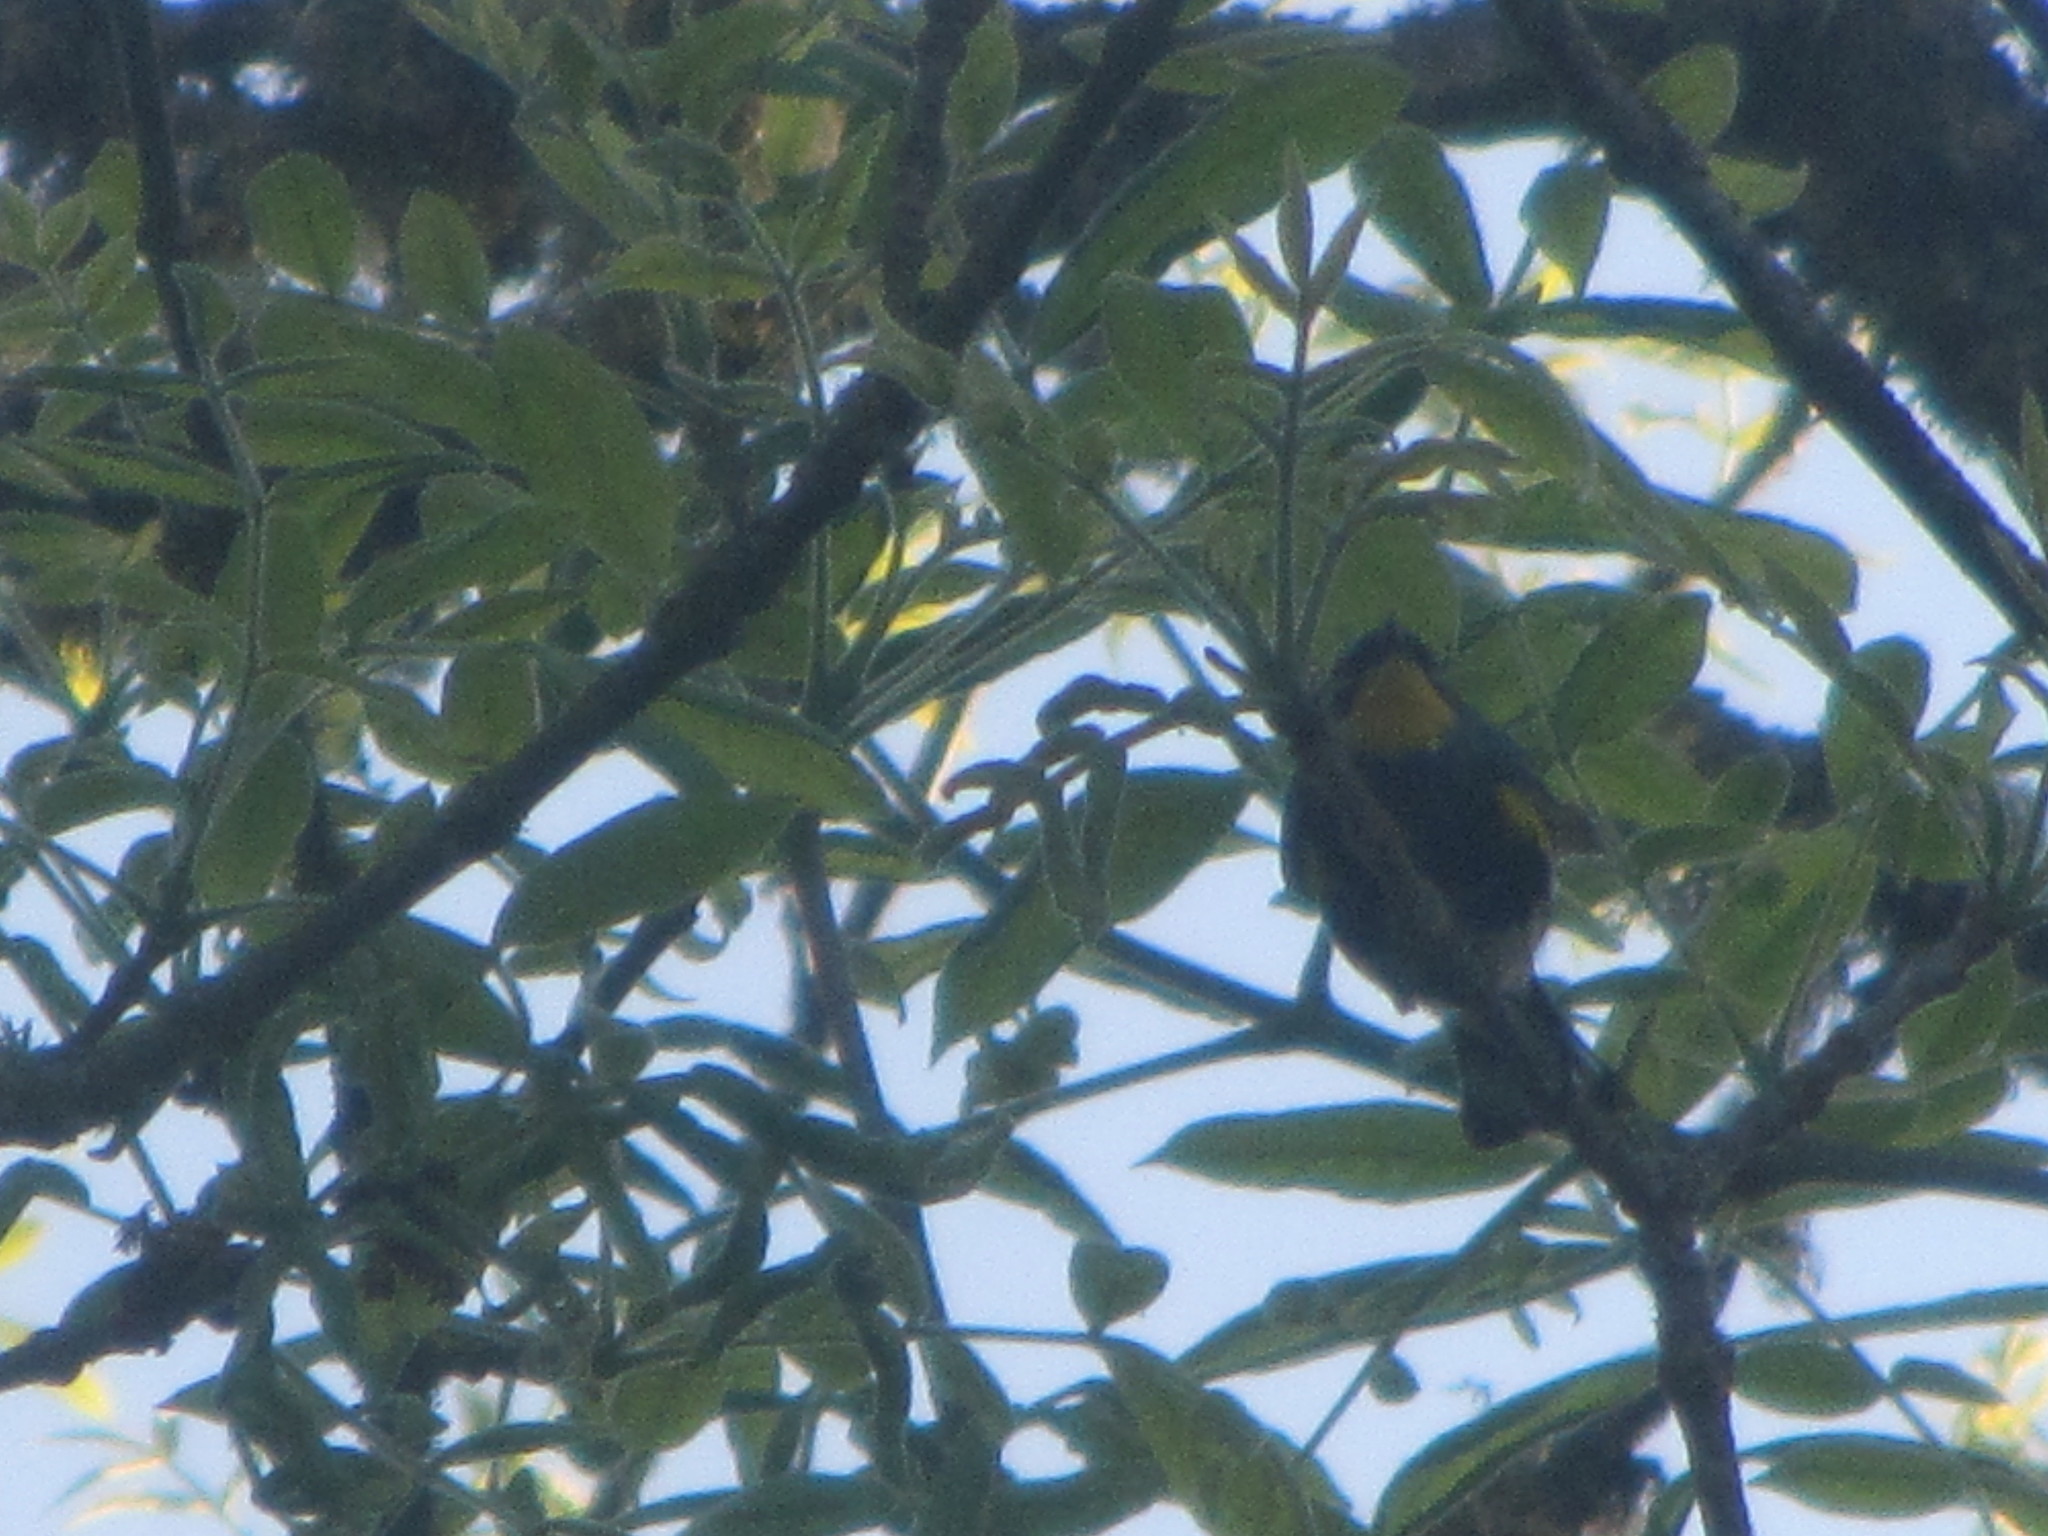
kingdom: Animalia
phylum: Chordata
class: Aves
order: Passeriformes
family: Parulidae
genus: Setophaga
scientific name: Setophaga auduboni
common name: Audubon's warbler
